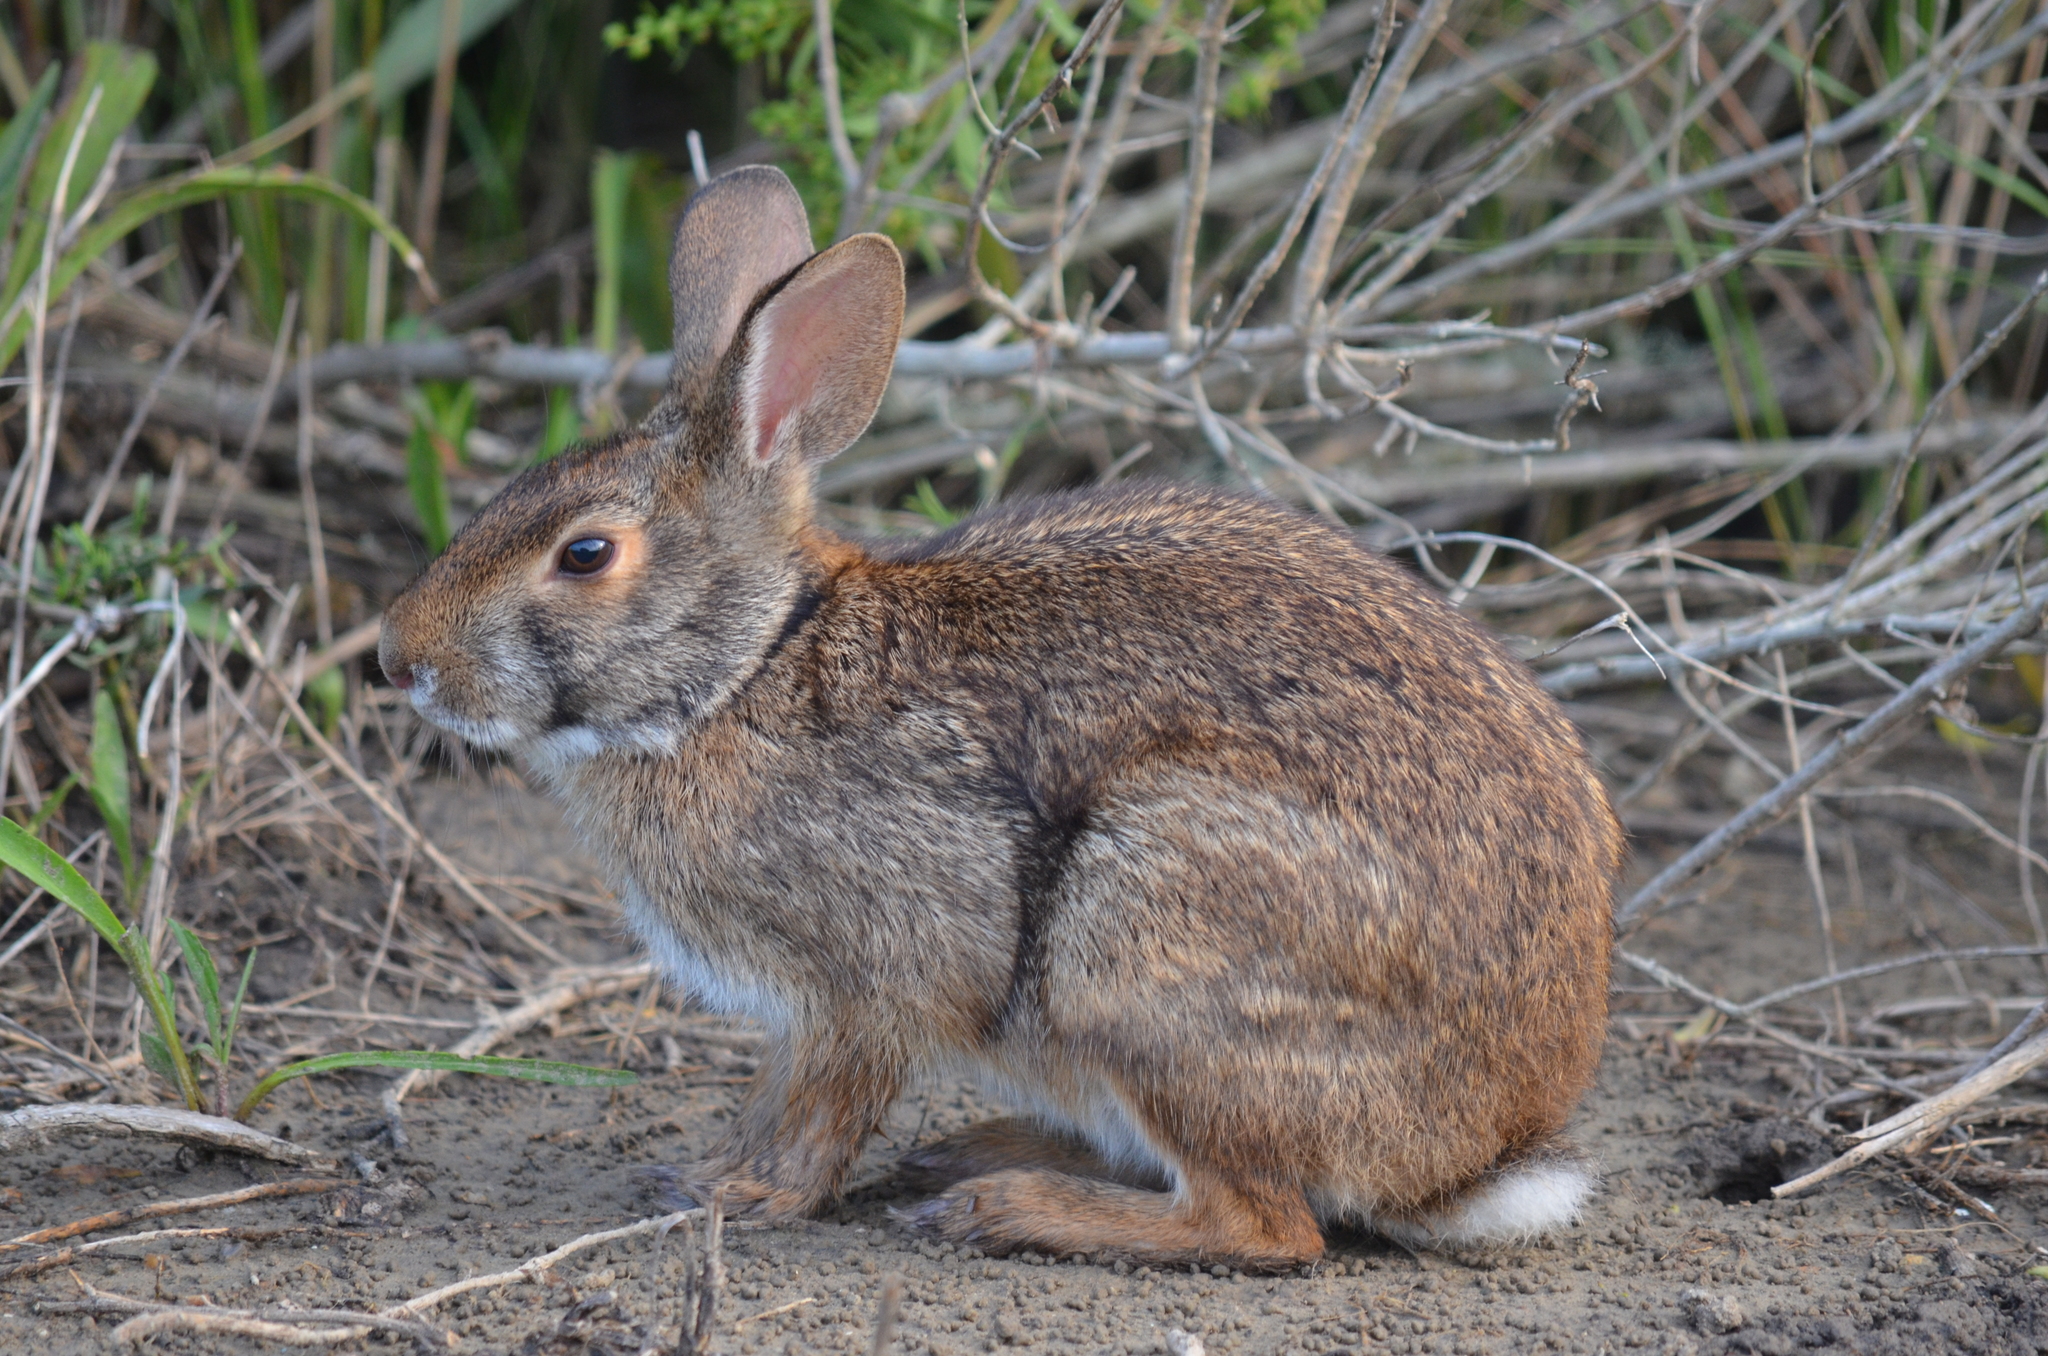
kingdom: Animalia
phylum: Chordata
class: Mammalia
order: Lagomorpha
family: Leporidae
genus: Sylvilagus
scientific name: Sylvilagus aquaticus
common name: Swamp rabbit
